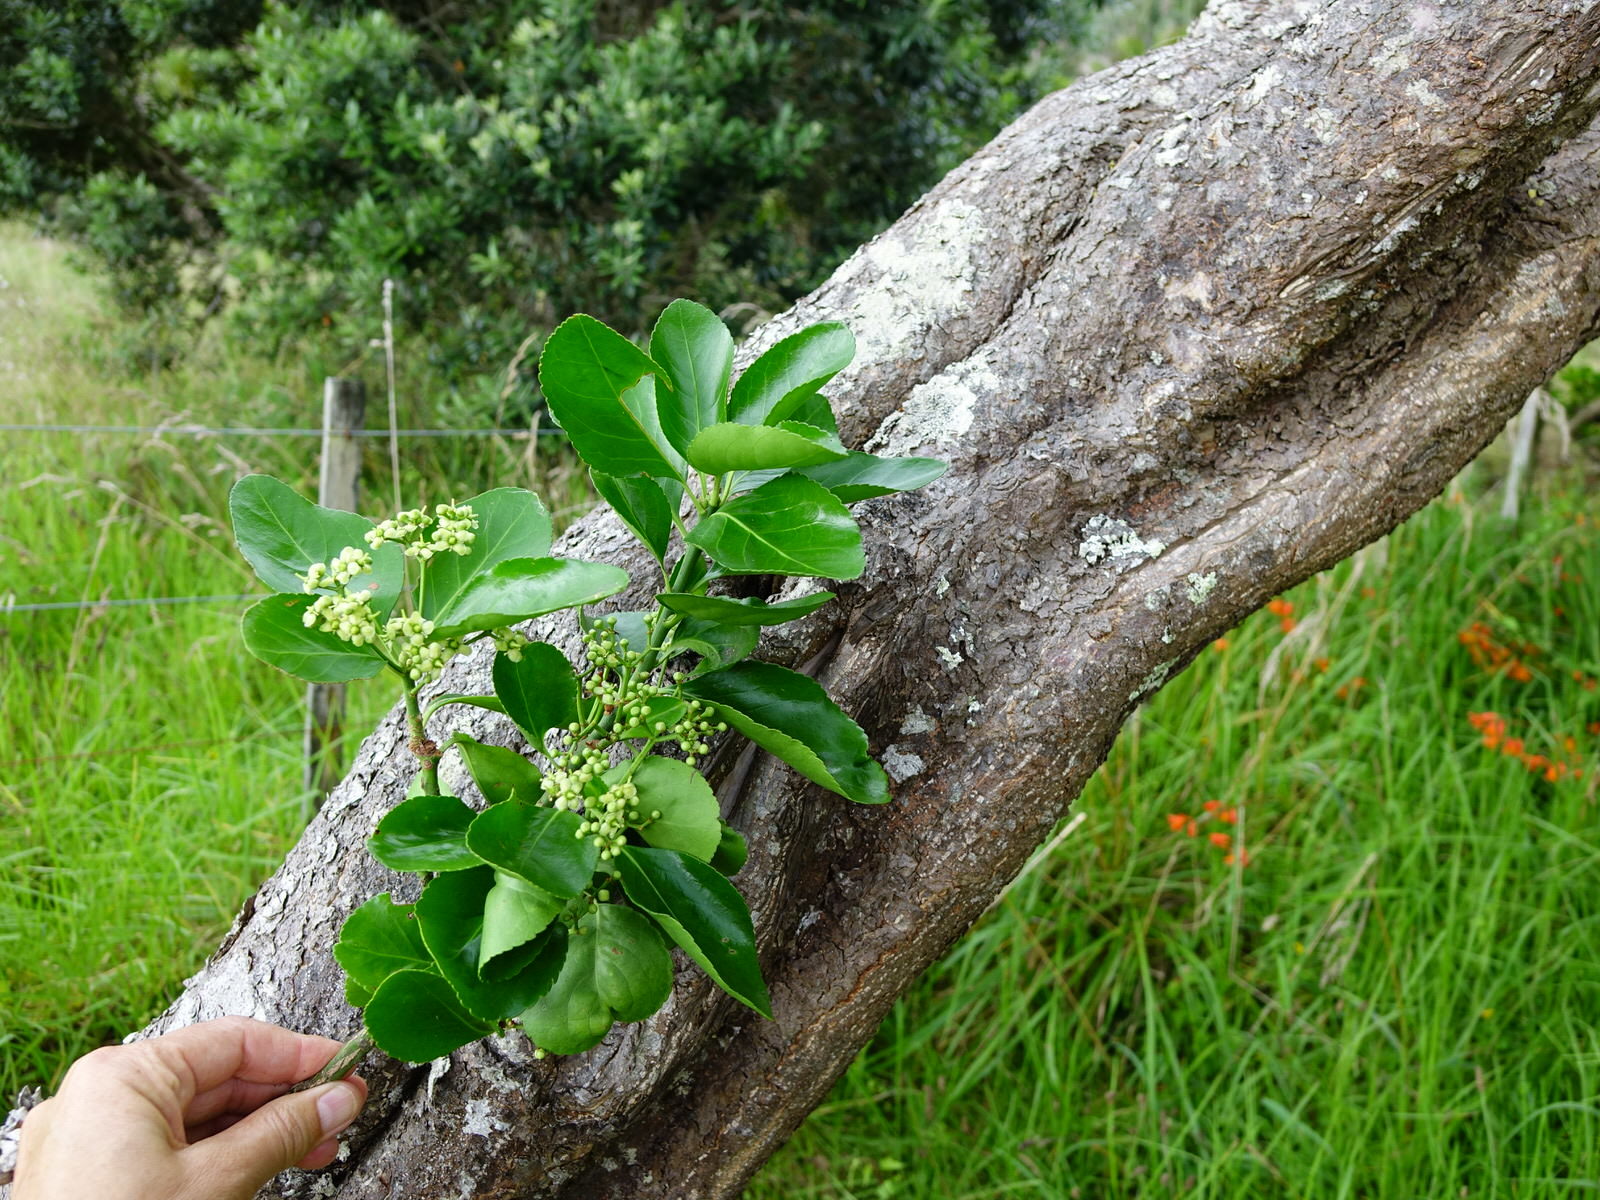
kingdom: Plantae
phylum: Tracheophyta
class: Magnoliopsida
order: Celastrales
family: Celastraceae
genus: Euonymus
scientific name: Euonymus japonicus
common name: Japanese spindletree
